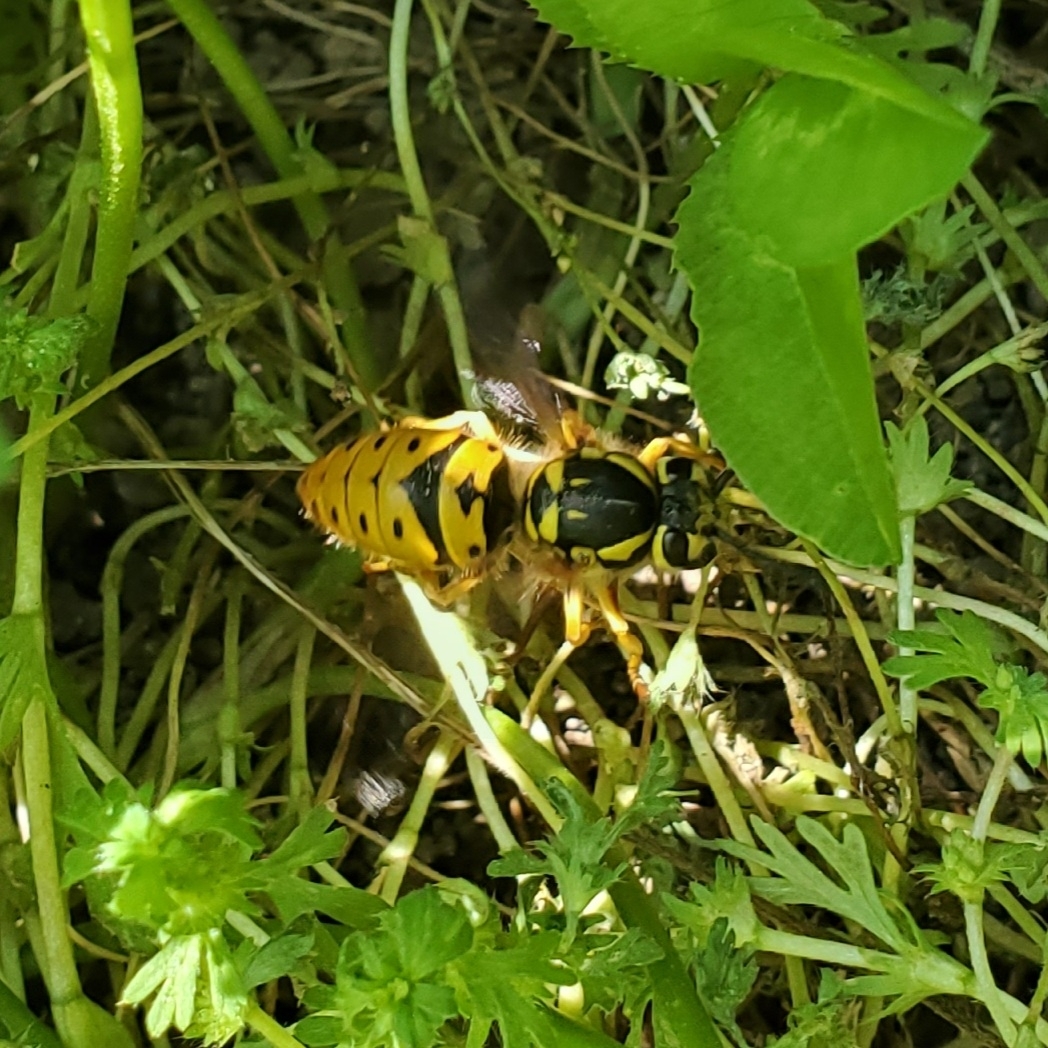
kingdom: Animalia
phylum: Arthropoda
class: Insecta
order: Hymenoptera
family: Vespidae
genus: Vespula
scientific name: Vespula maculifrons
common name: Eastern yellowjacket
